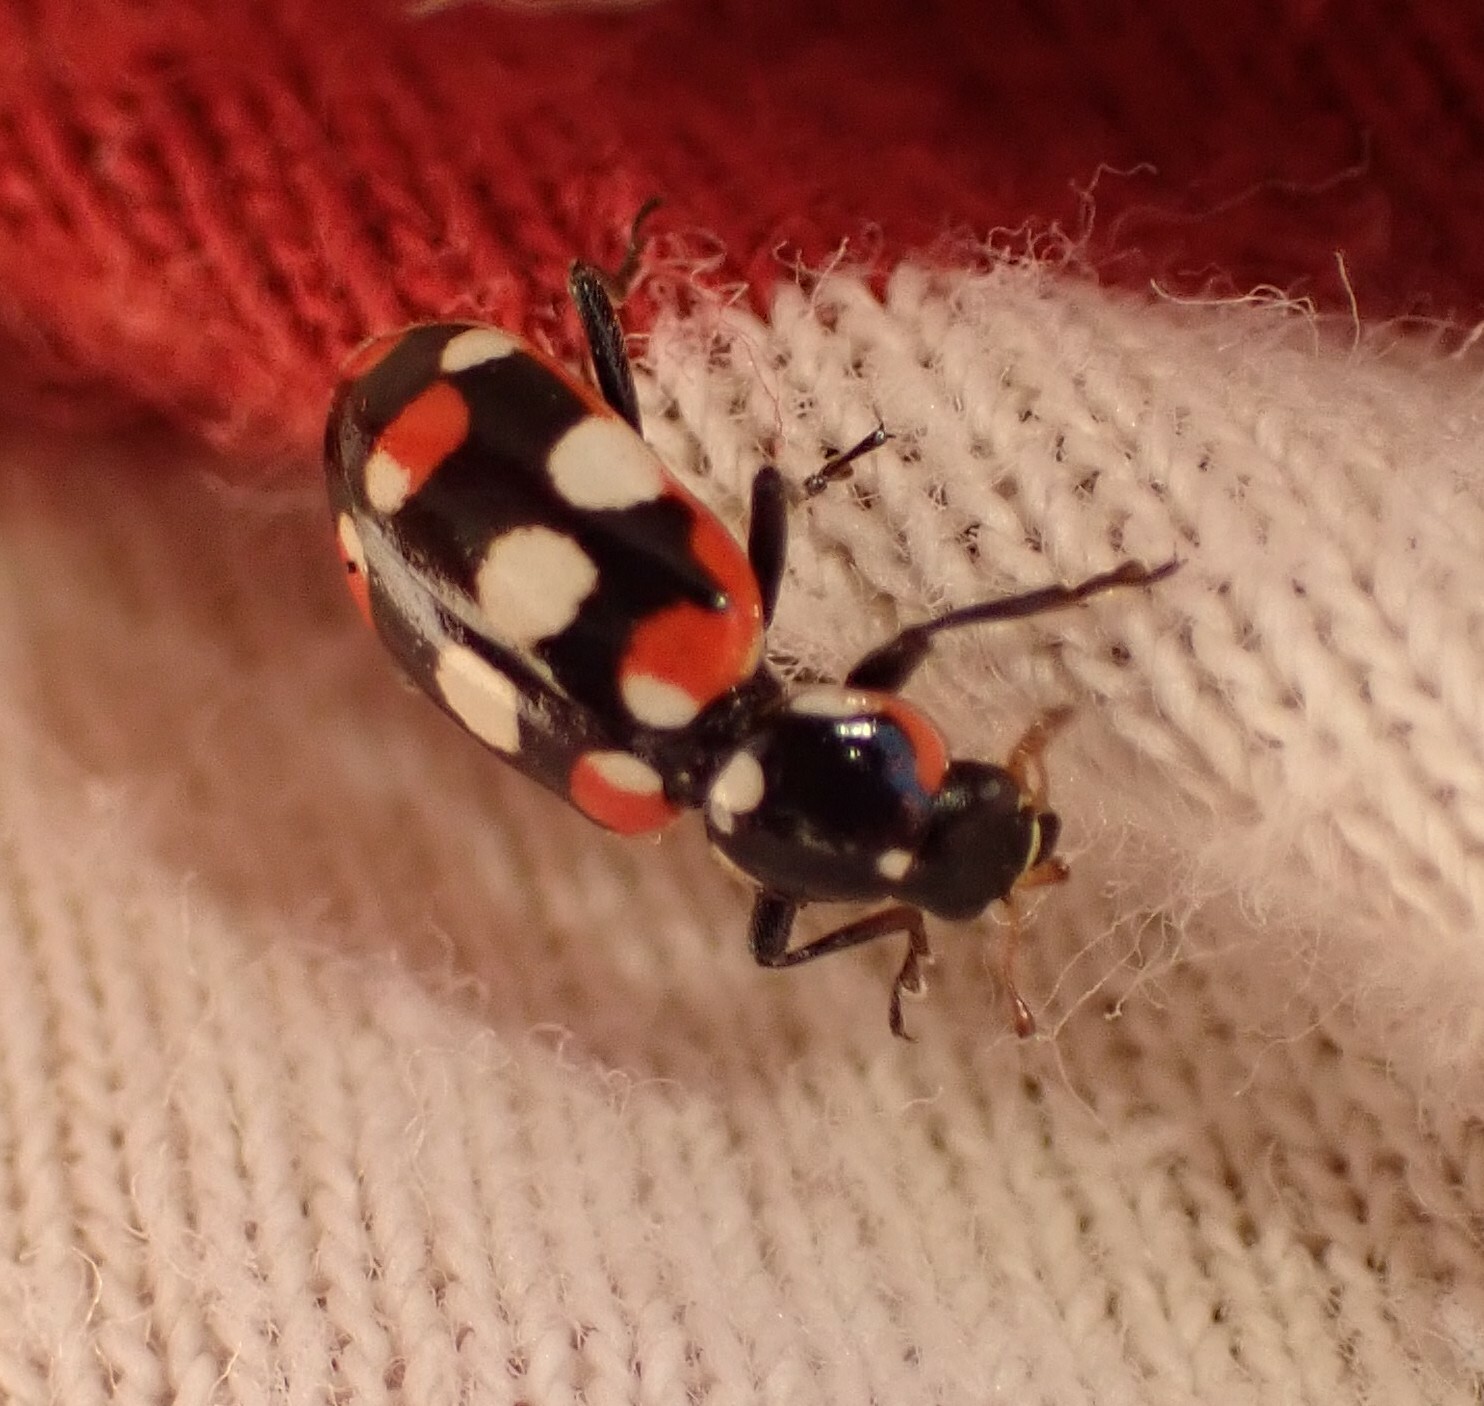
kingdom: Animalia
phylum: Arthropoda
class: Insecta
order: Coleoptera
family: Coccinellidae
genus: Eriopis
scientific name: Eriopis connexa
